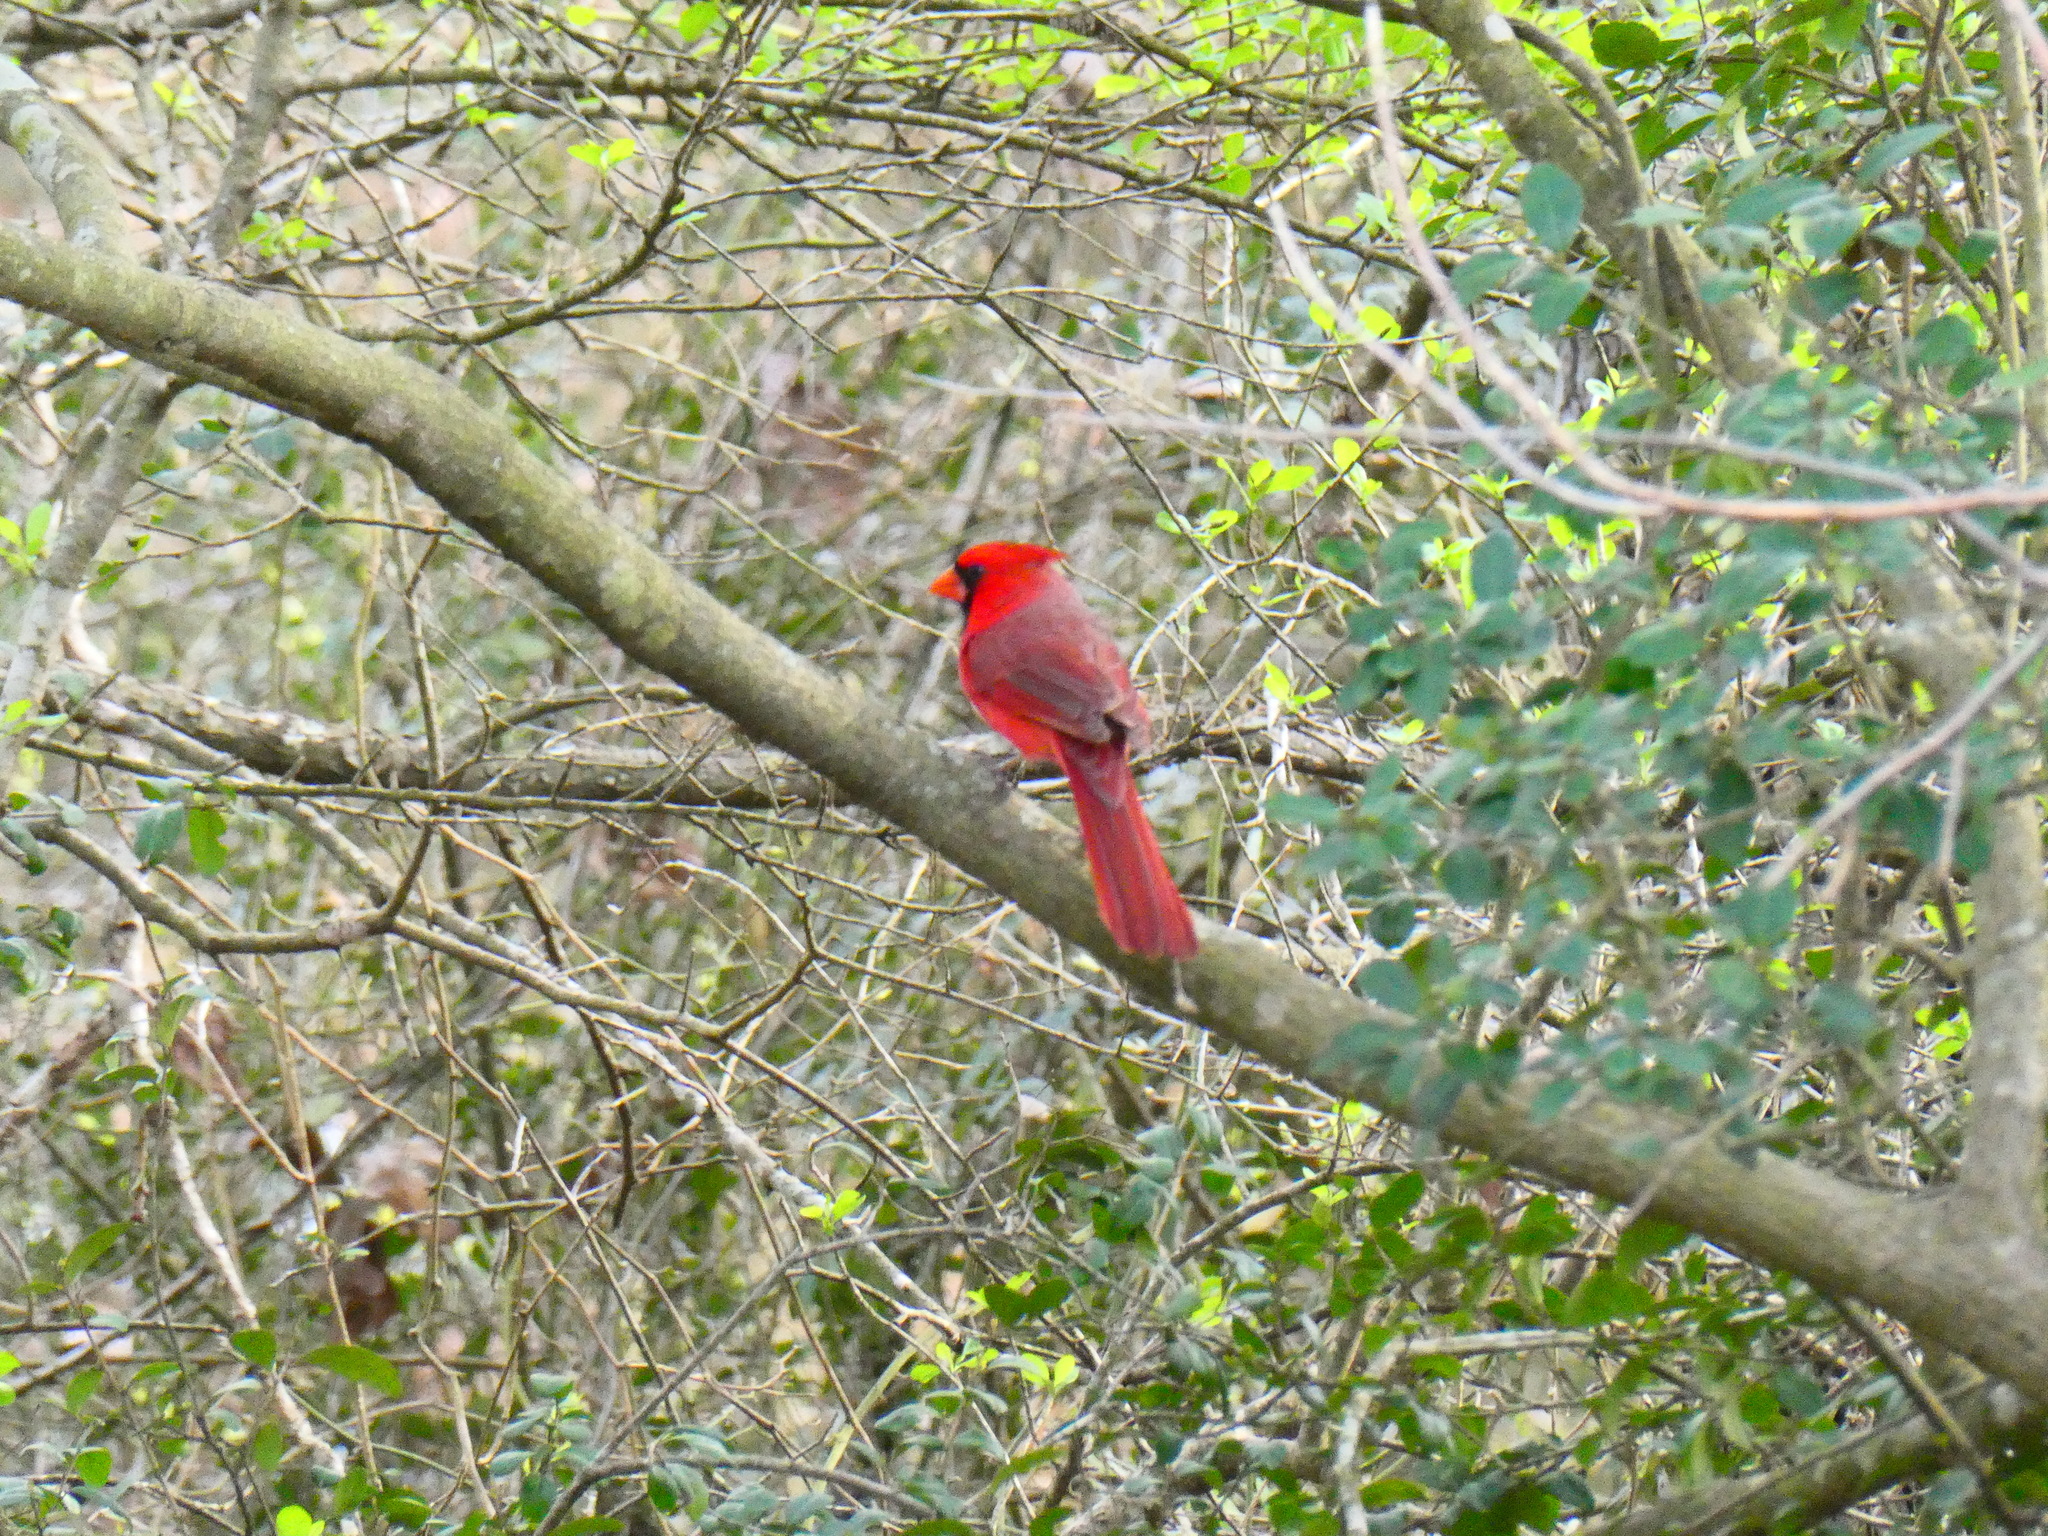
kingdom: Animalia
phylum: Chordata
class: Aves
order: Passeriformes
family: Cardinalidae
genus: Cardinalis
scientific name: Cardinalis cardinalis
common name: Northern cardinal
